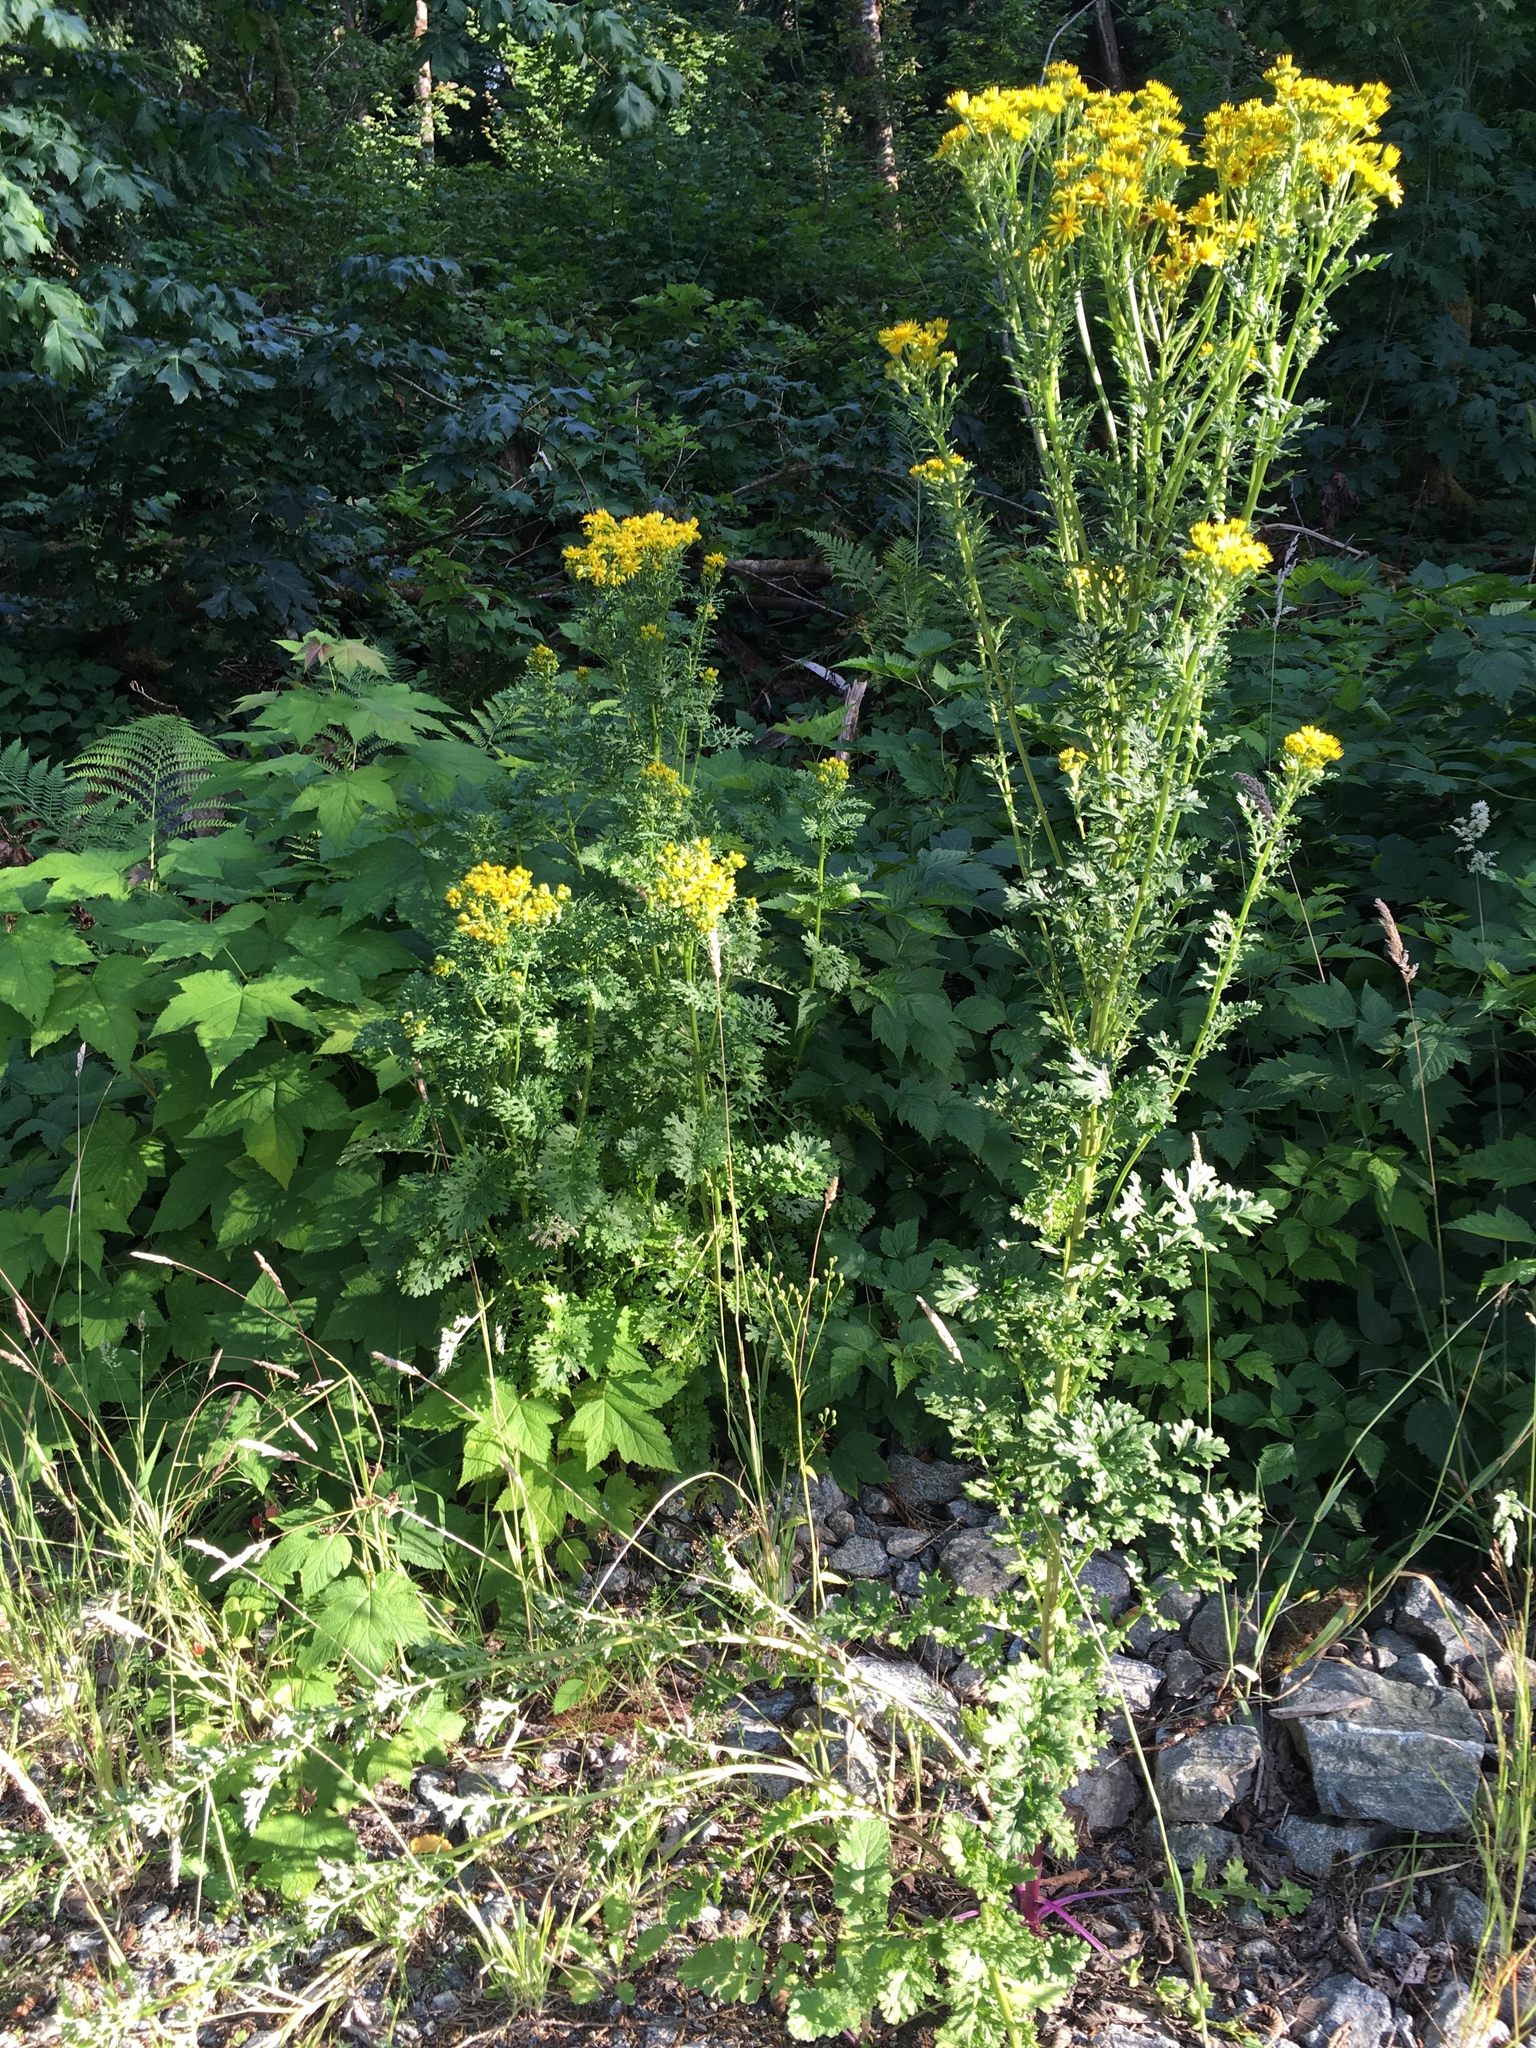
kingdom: Plantae
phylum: Tracheophyta
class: Magnoliopsida
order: Asterales
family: Asteraceae
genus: Jacobaea
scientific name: Jacobaea vulgaris
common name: Stinking willie
